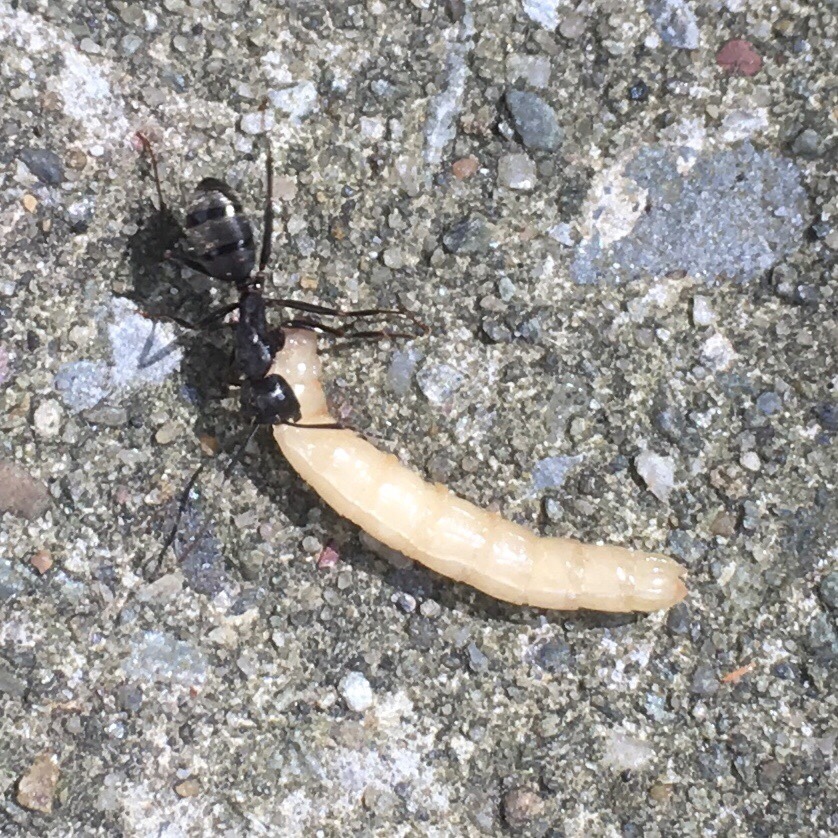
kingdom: Animalia
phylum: Arthropoda
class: Insecta
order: Hymenoptera
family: Formicidae
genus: Camponotus
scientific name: Camponotus pennsylvanicus
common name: Black carpenter ant
